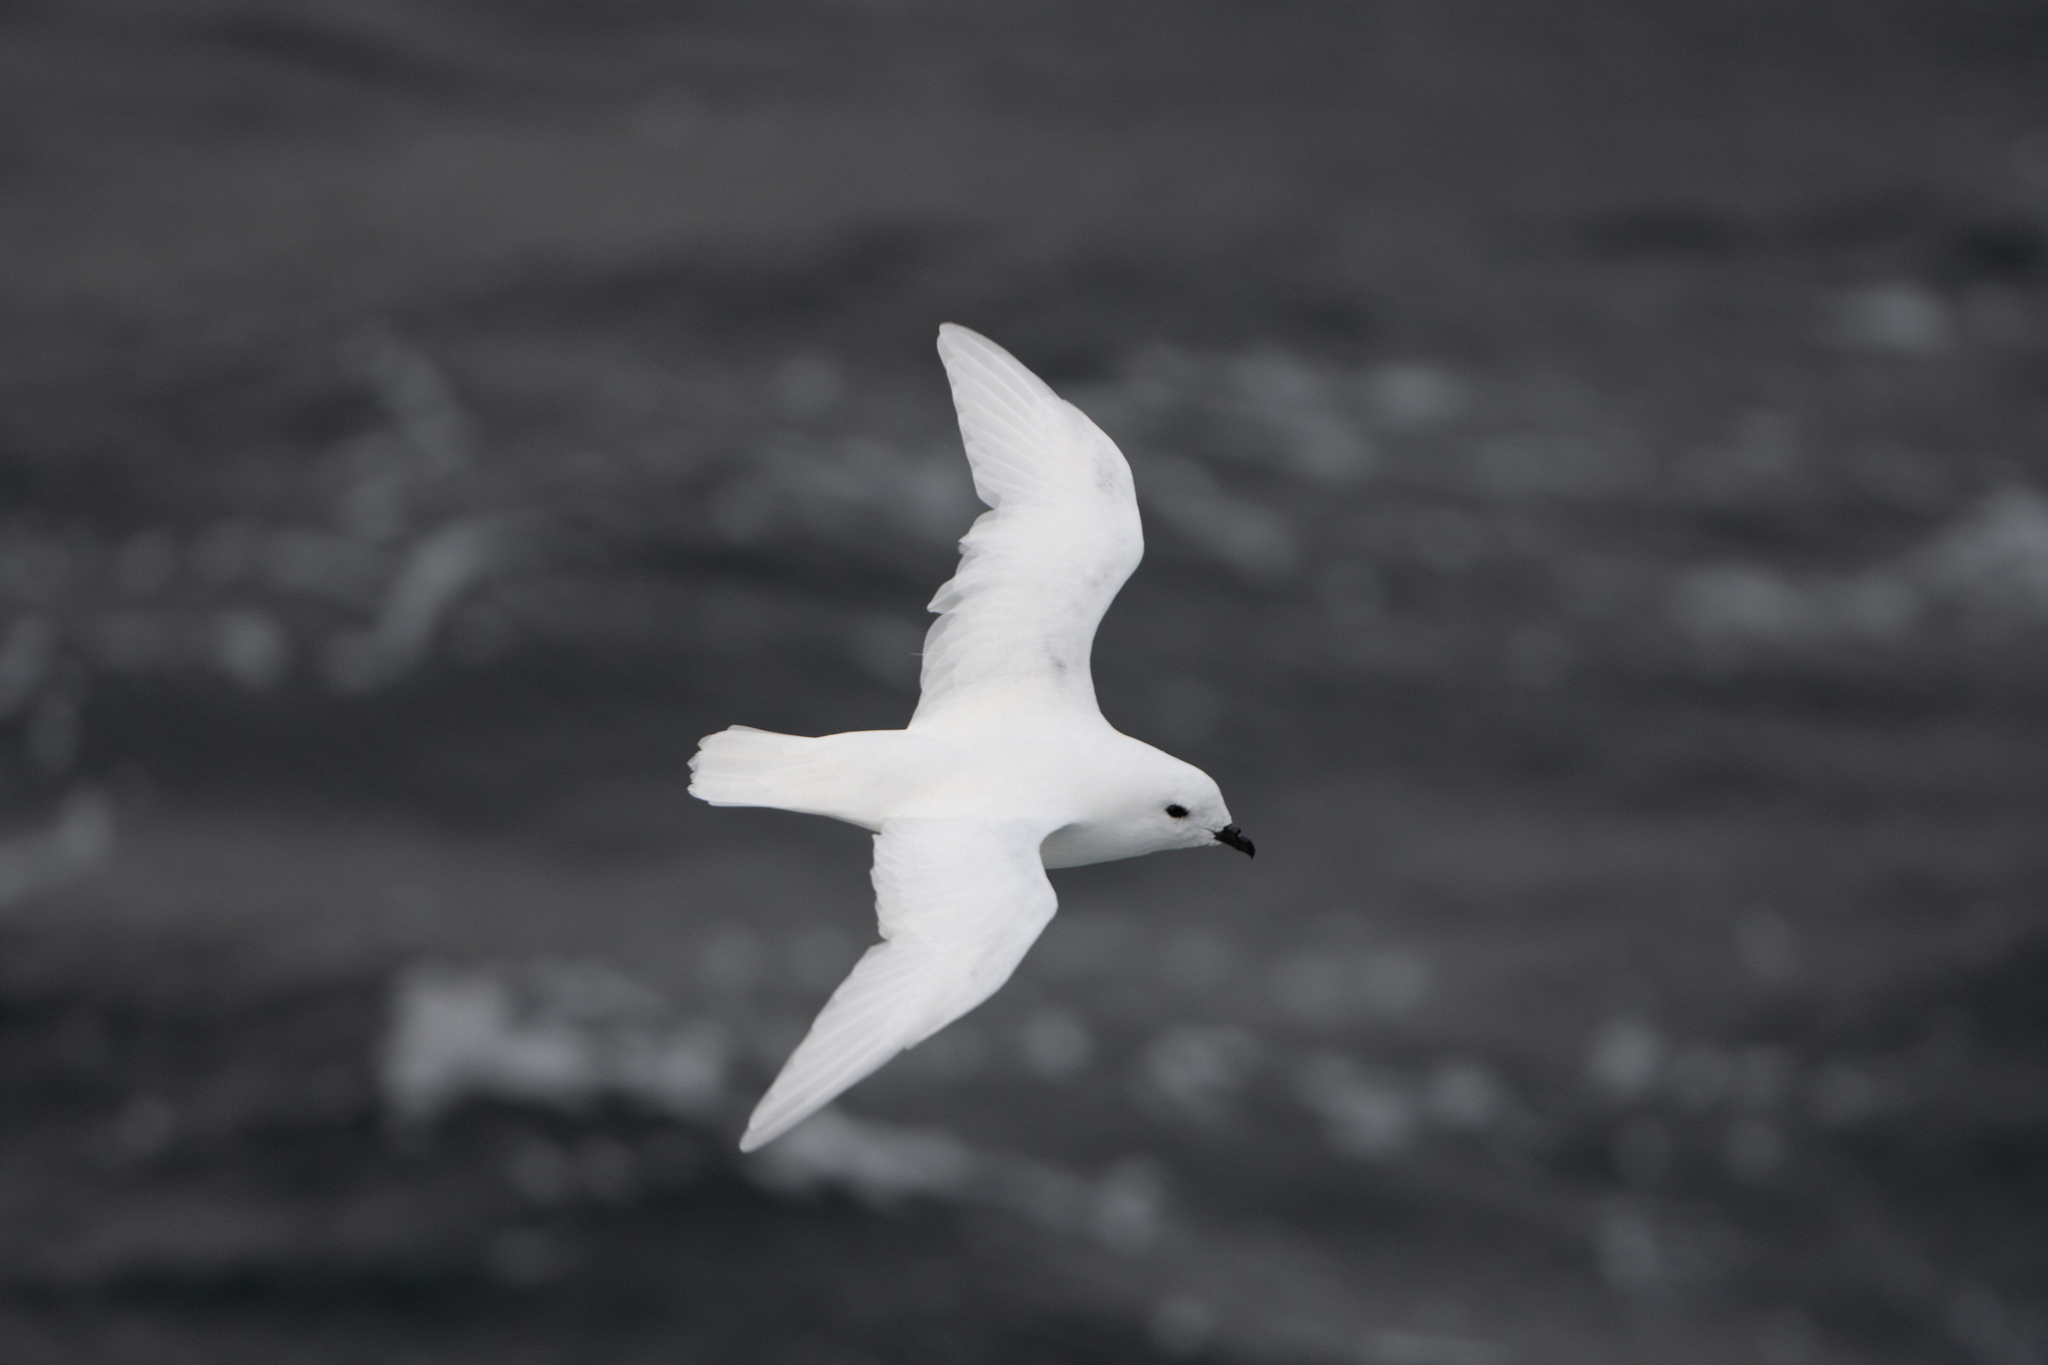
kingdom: Animalia
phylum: Chordata
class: Aves
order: Procellariiformes
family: Procellariidae
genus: Pagodroma
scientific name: Pagodroma nivea
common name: Snow petrel
